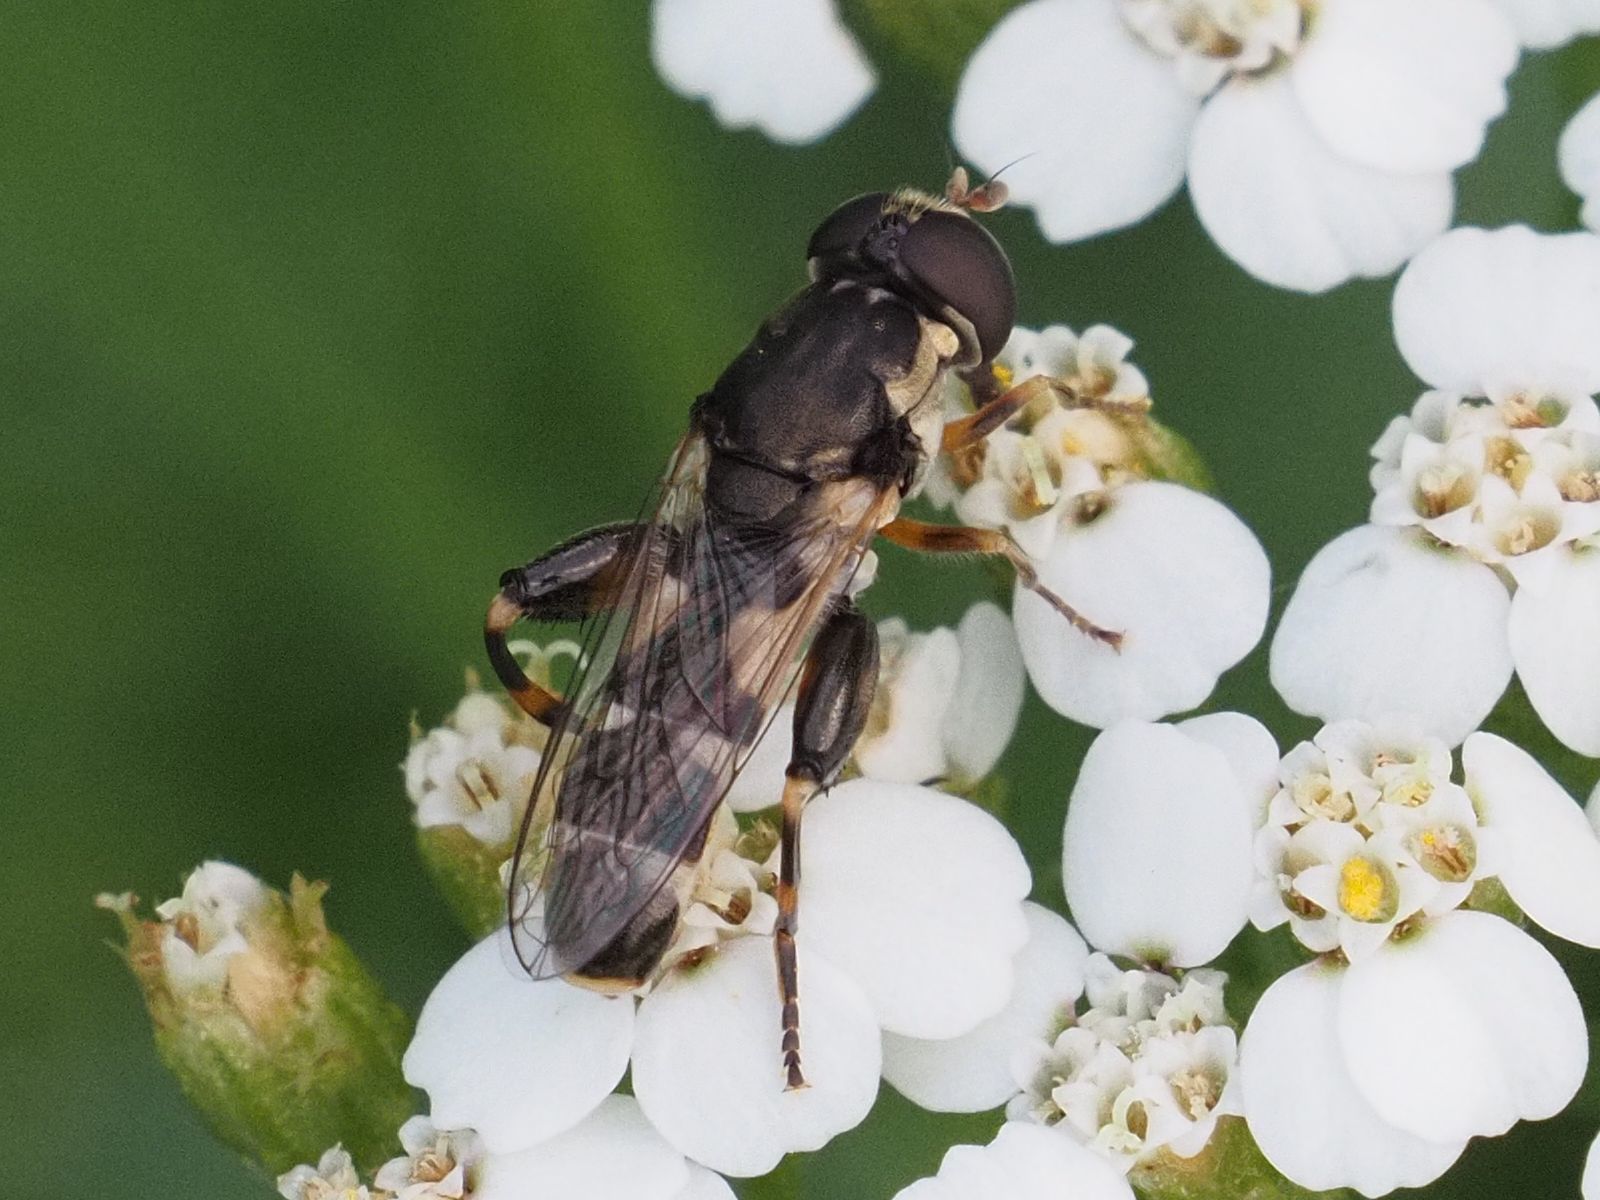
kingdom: Animalia
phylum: Arthropoda
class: Insecta
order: Diptera
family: Syrphidae
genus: Syritta
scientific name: Syritta pipiens
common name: Hover fly
